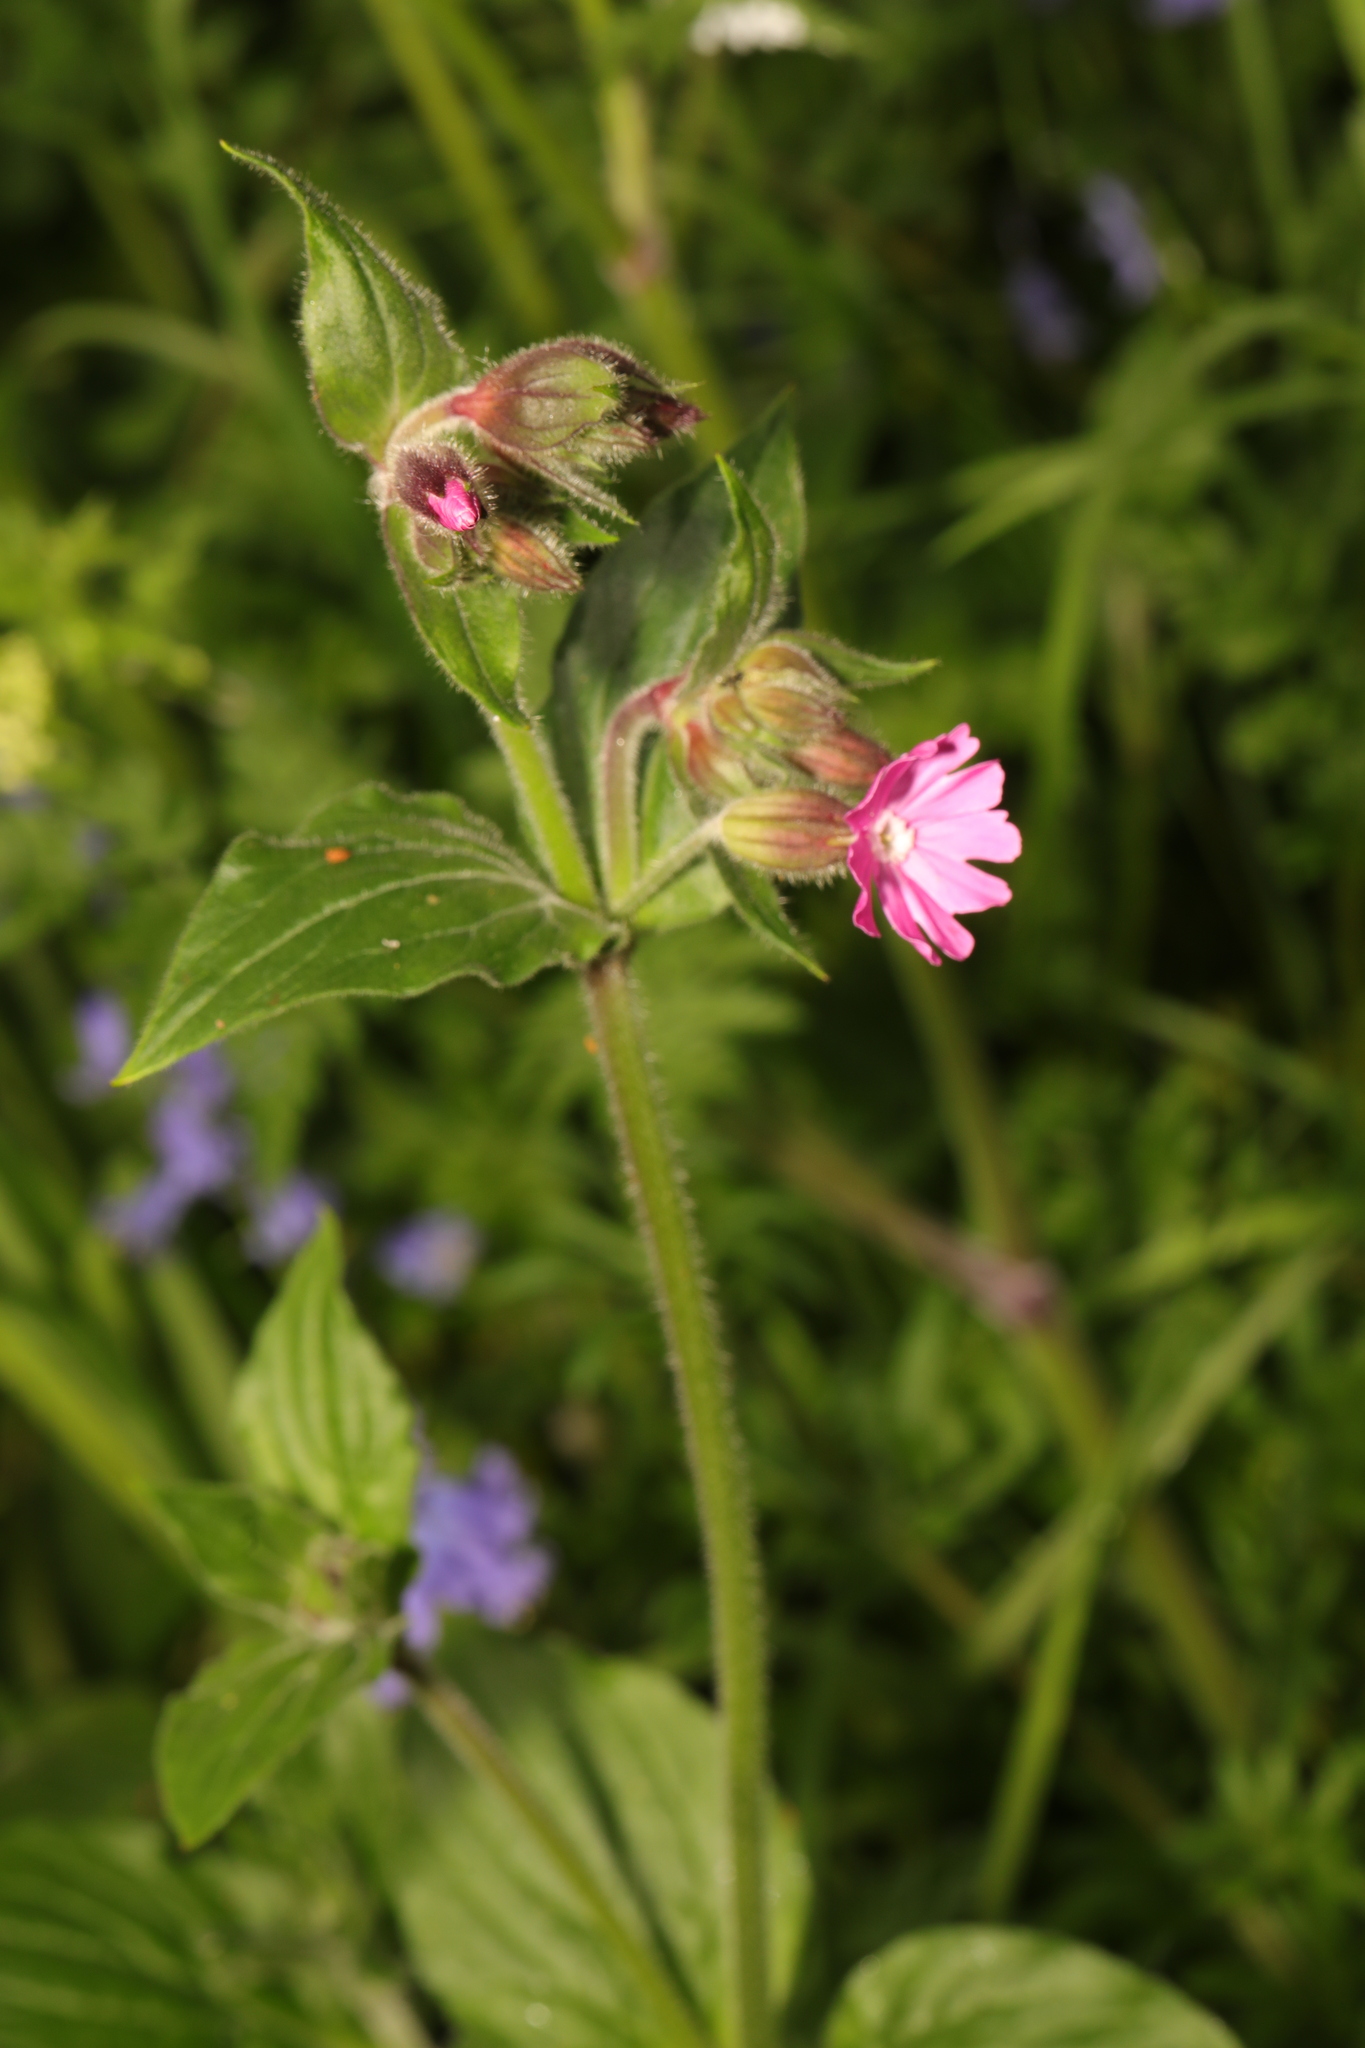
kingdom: Plantae
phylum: Tracheophyta
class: Magnoliopsida
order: Caryophyllales
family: Caryophyllaceae
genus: Silene
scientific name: Silene dioica
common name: Red campion
